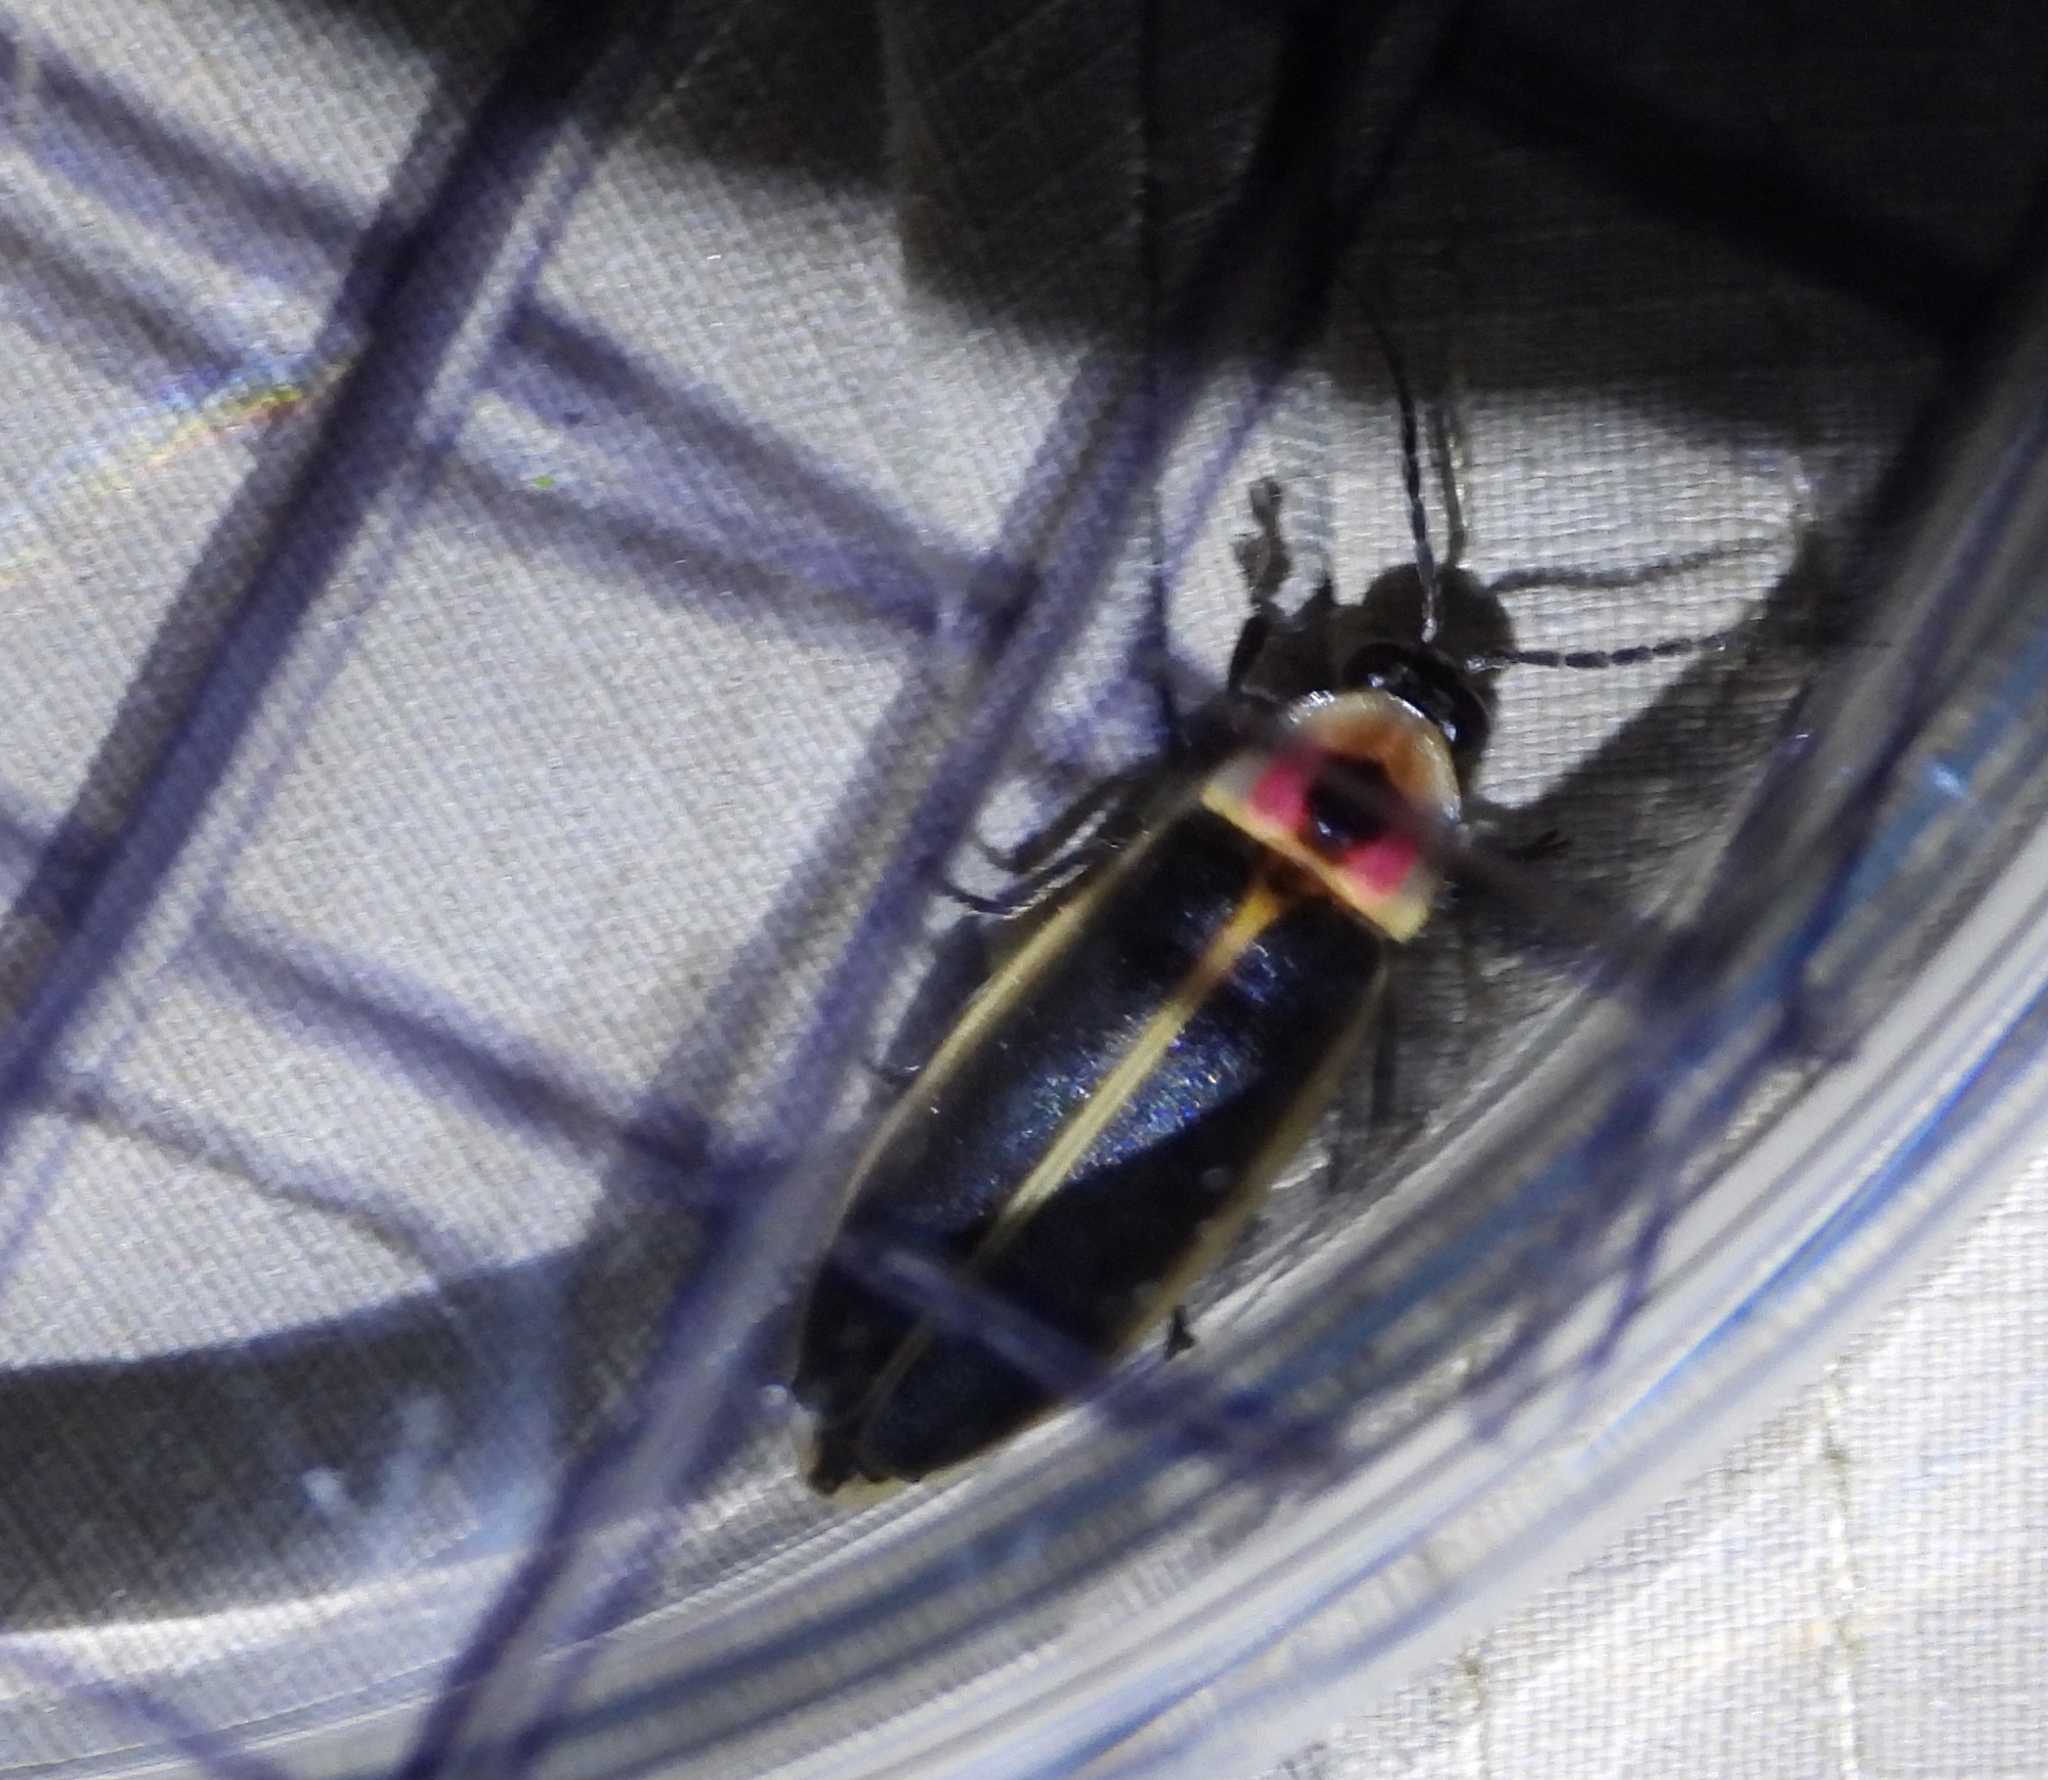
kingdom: Animalia
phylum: Arthropoda
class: Insecta
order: Coleoptera
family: Lampyridae
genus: Photinus
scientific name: Photinus pyralis
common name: Big dipper firefly
